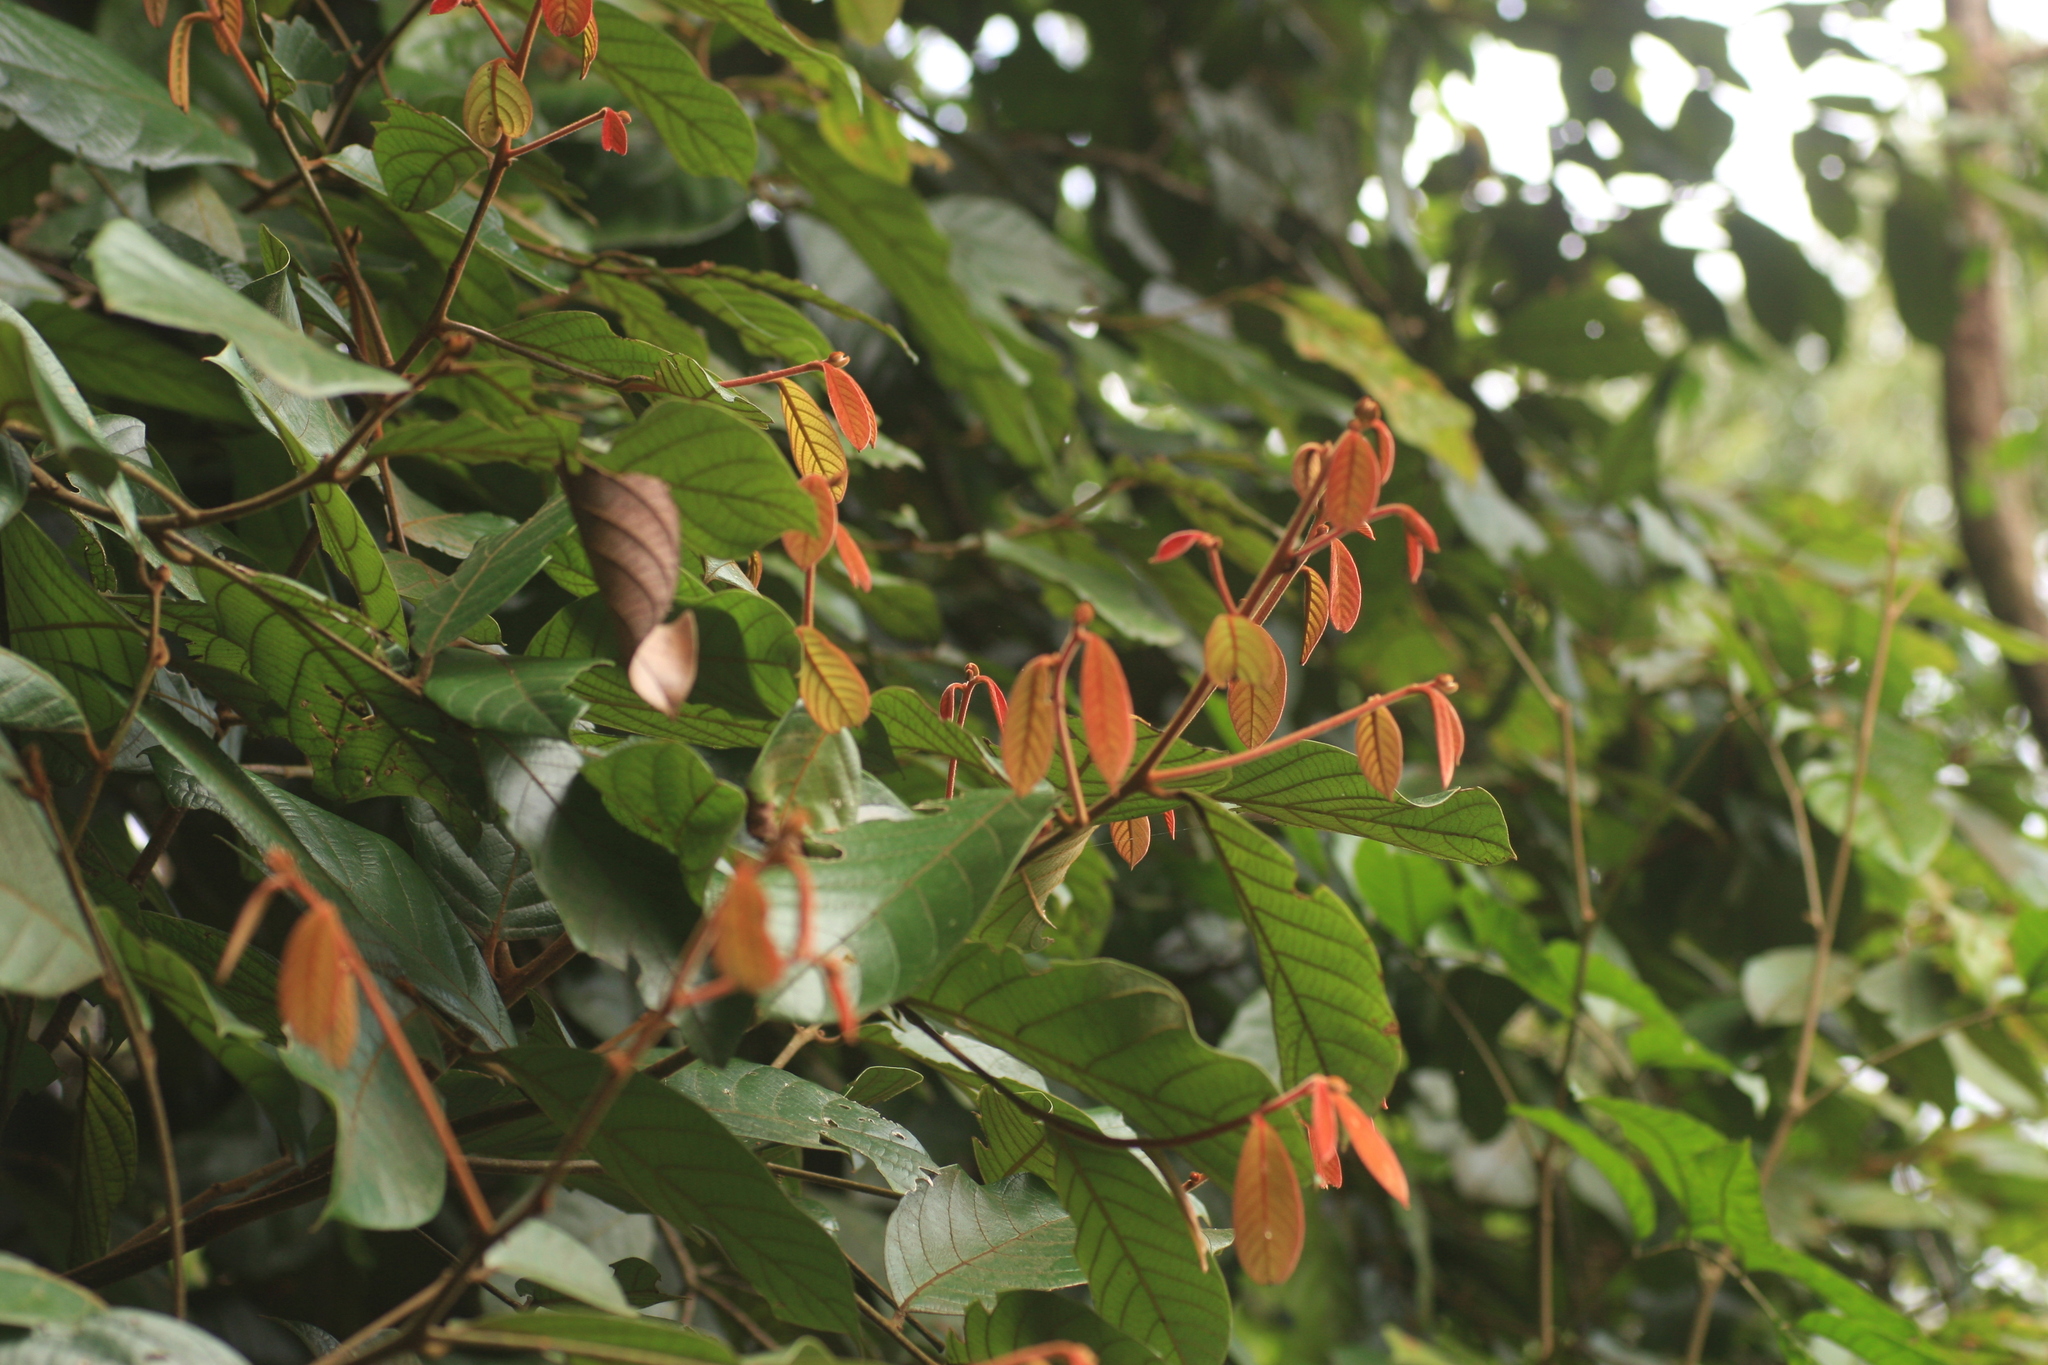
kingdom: Plantae
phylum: Tracheophyta
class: Magnoliopsida
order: Laurales
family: Lauraceae
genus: Cryptocarya
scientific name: Cryptocarya anamalayana
